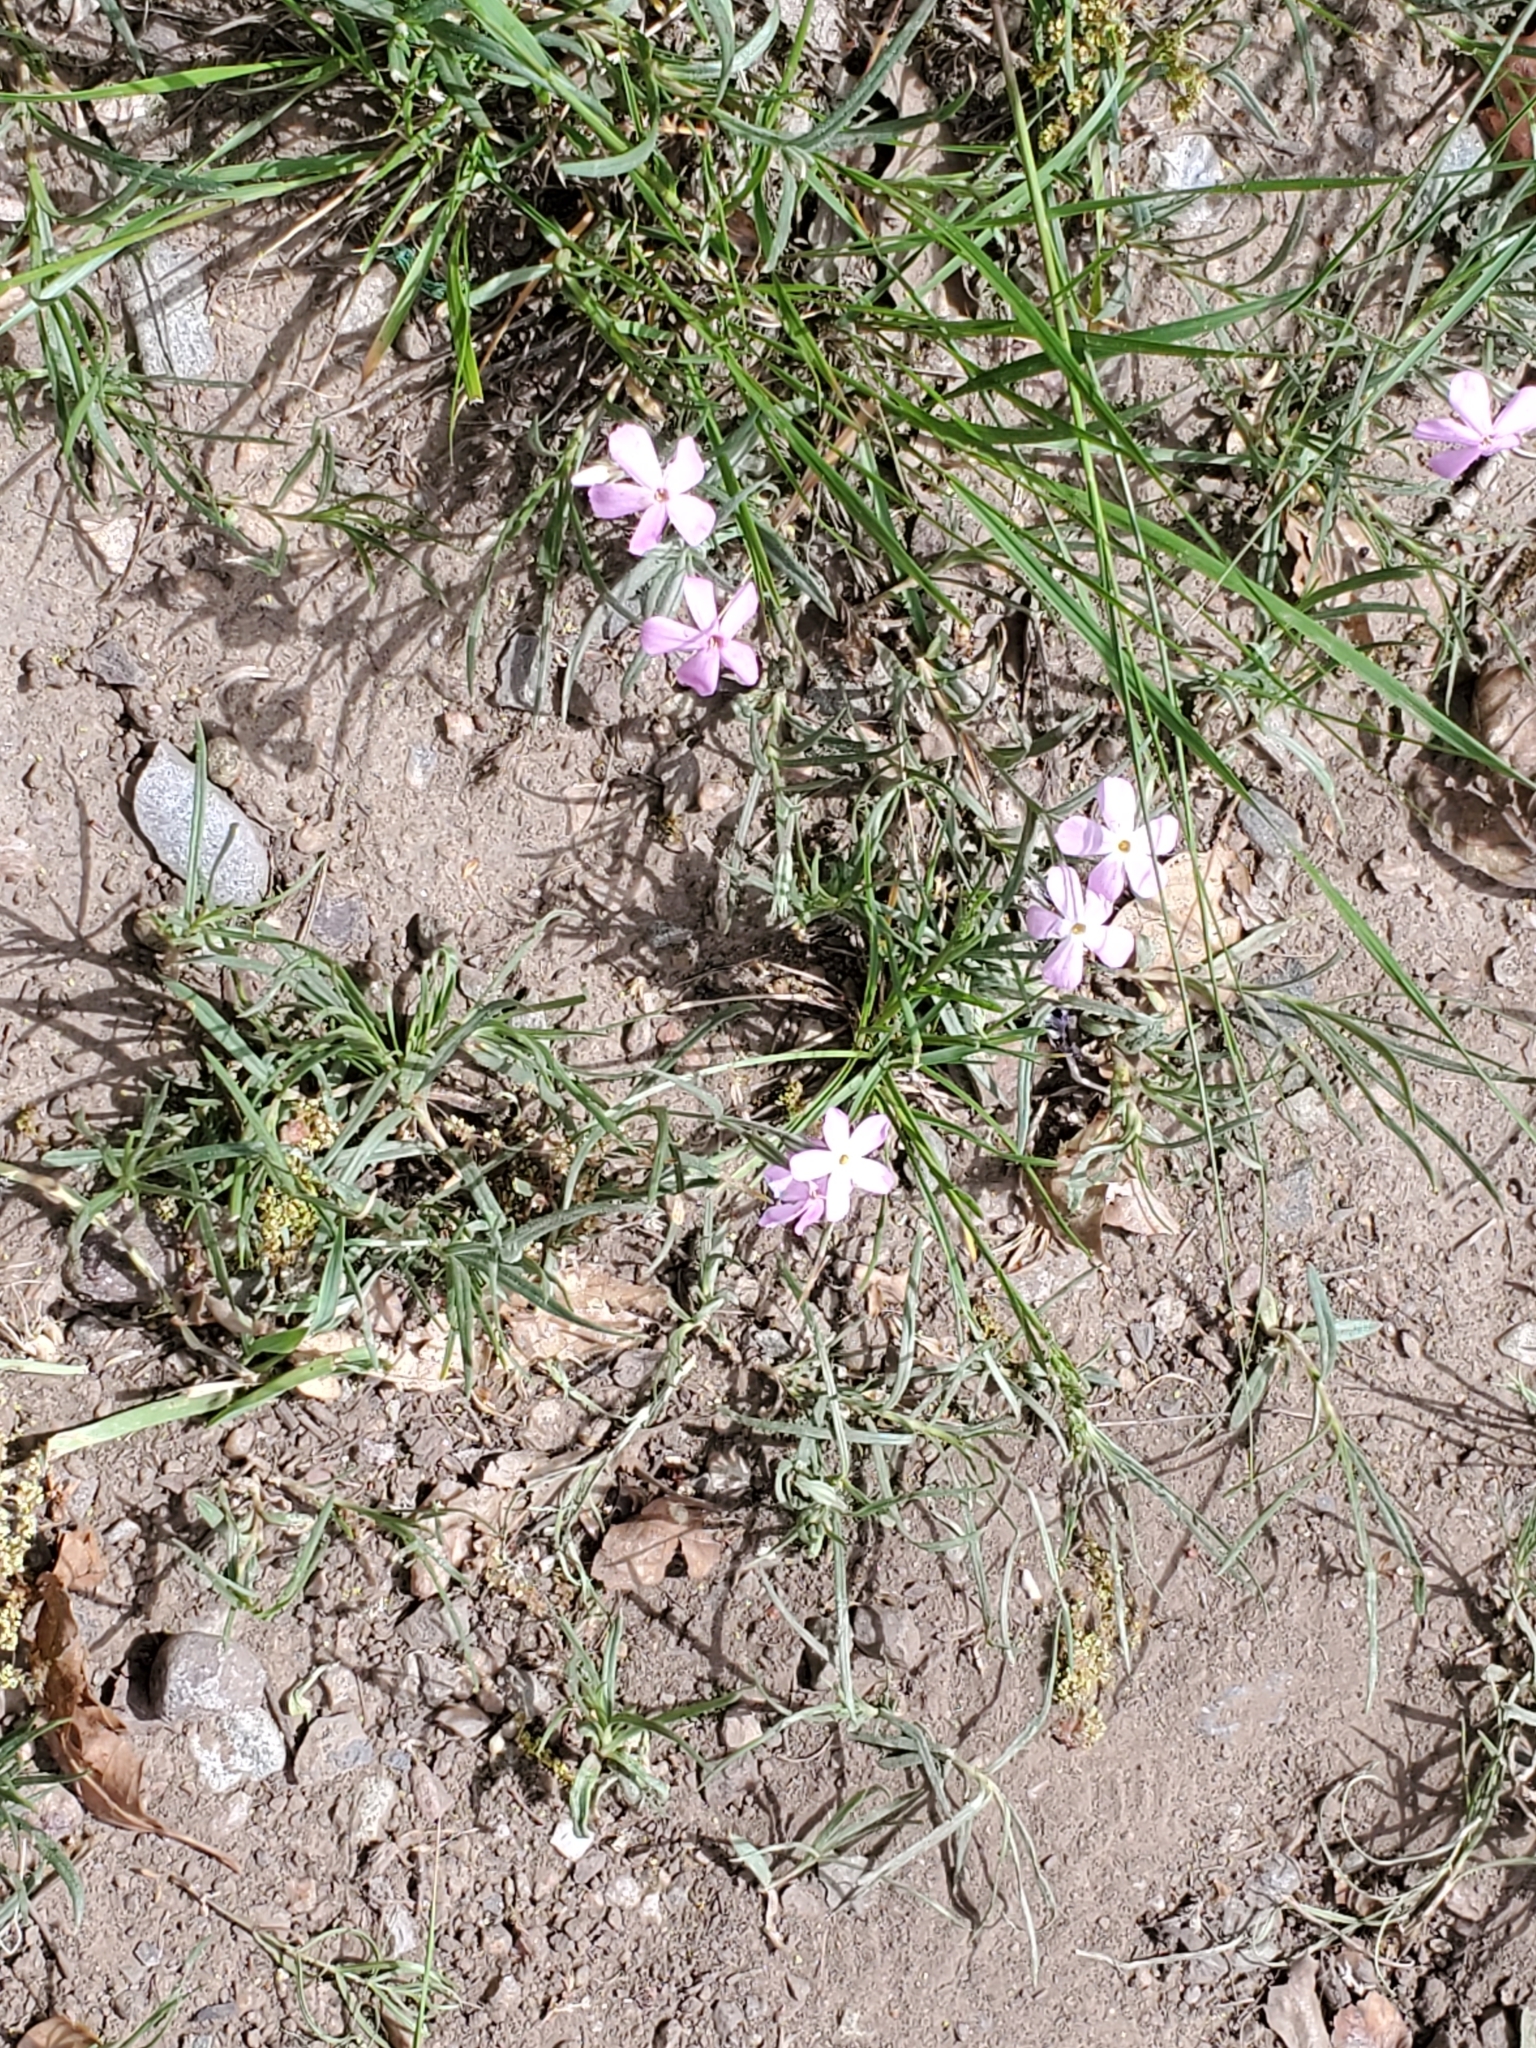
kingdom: Plantae
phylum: Tracheophyta
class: Magnoliopsida
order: Ericales
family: Polemoniaceae
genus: Phlox
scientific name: Phlox longifolia
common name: Longleaf phlox
